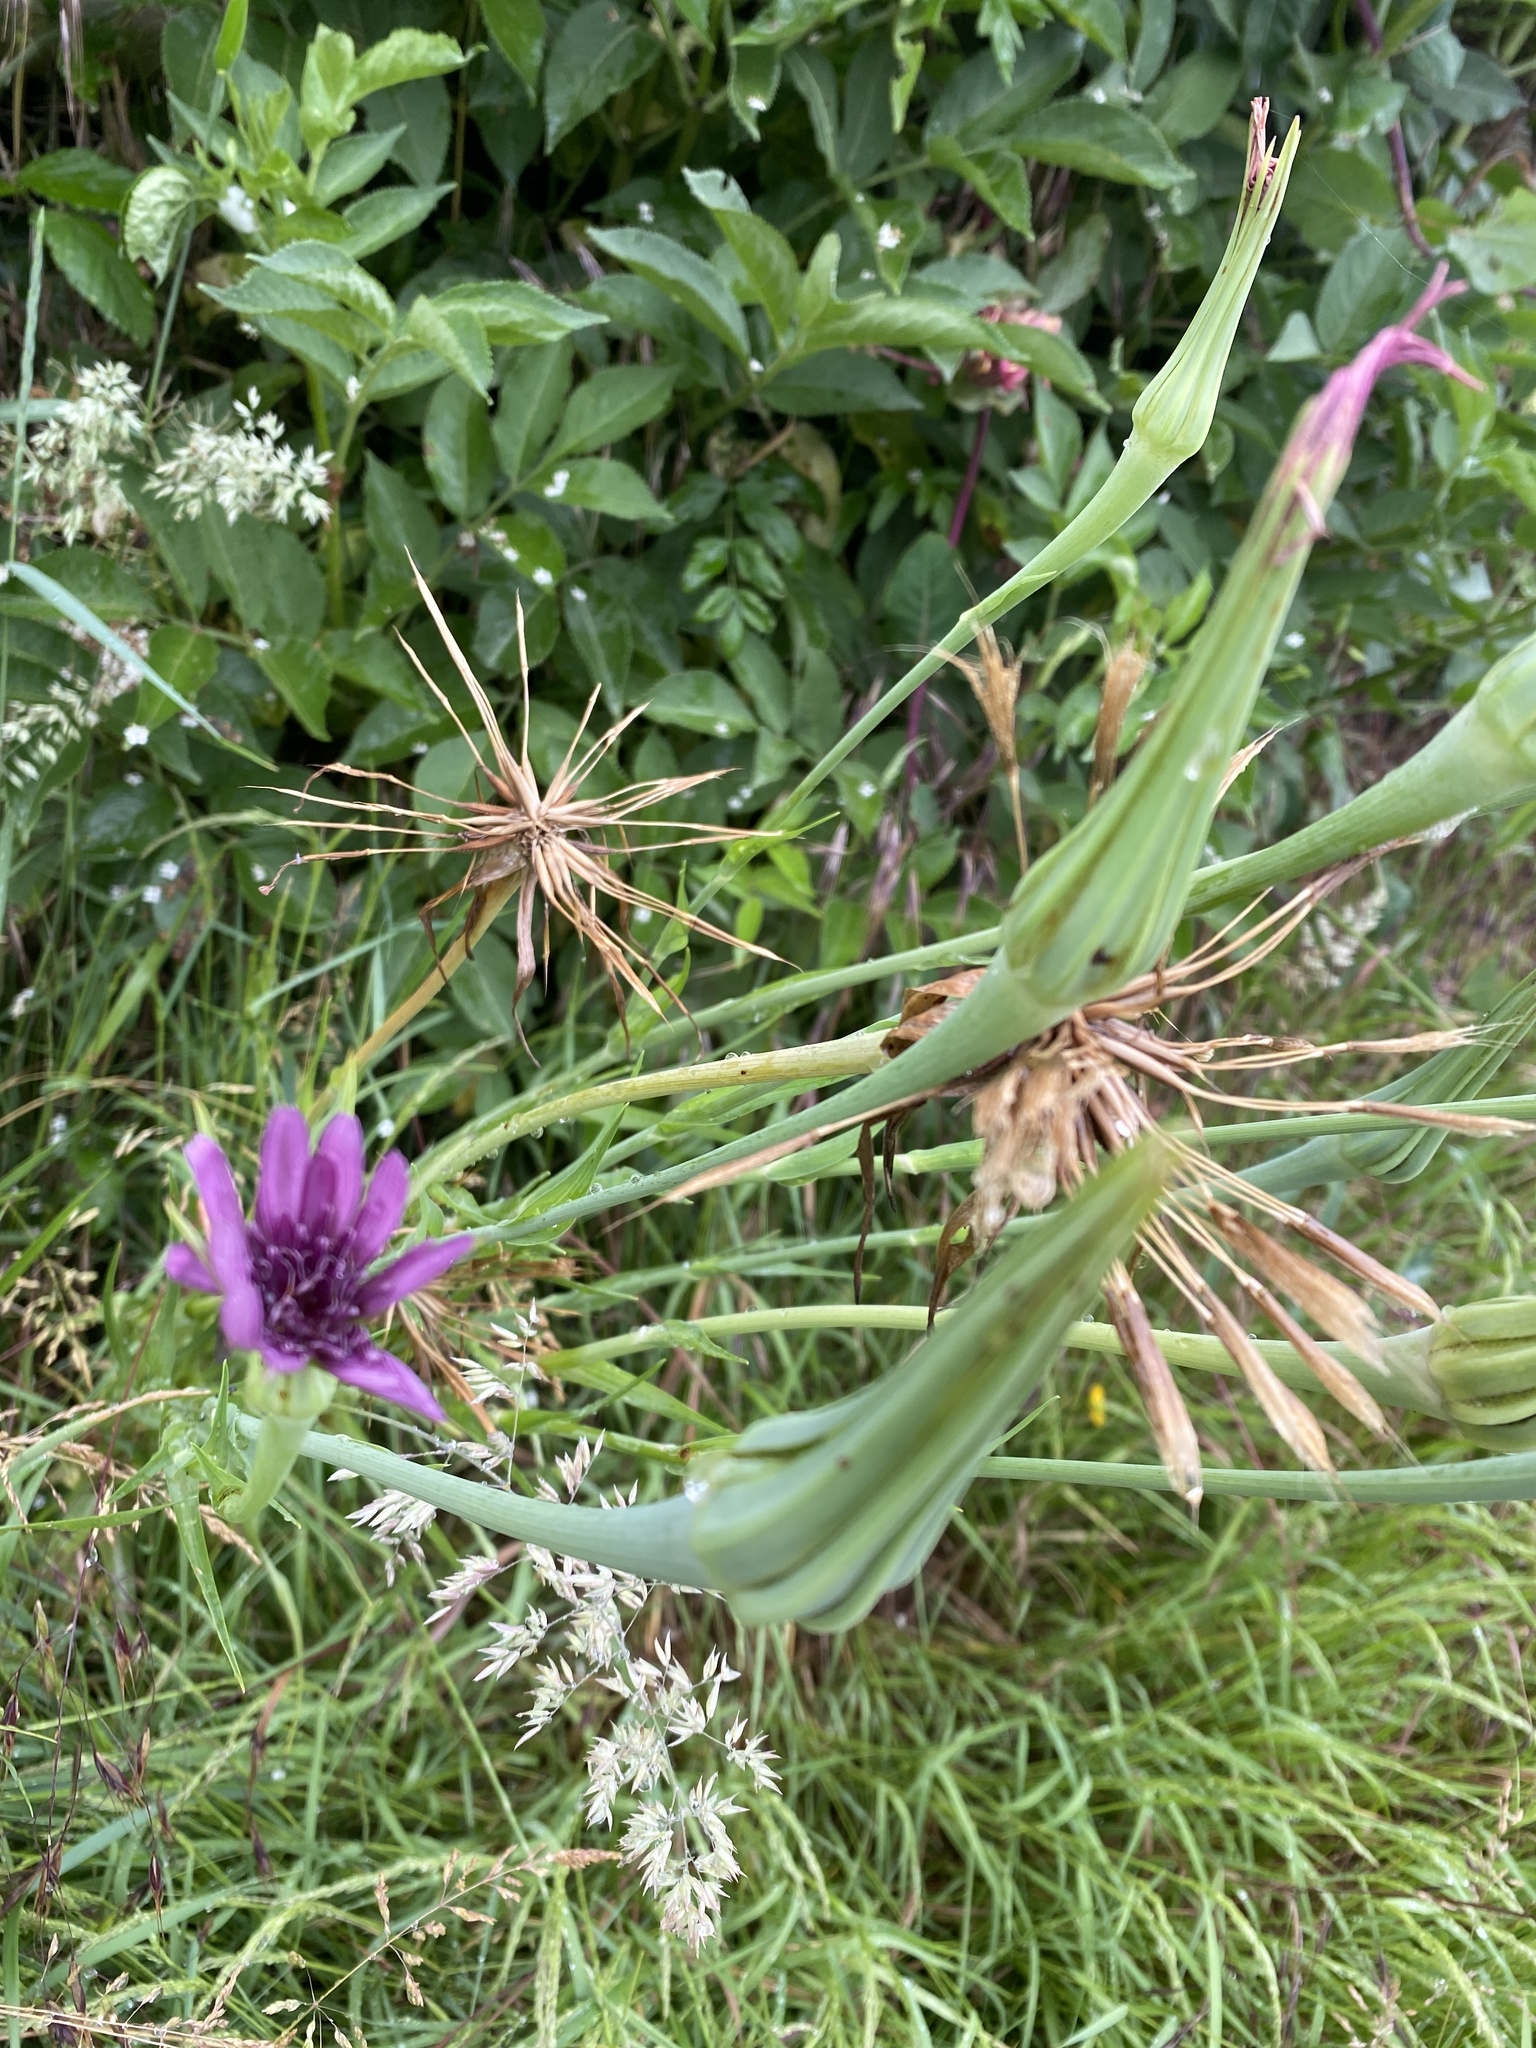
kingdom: Plantae
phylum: Tracheophyta
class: Magnoliopsida
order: Asterales
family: Asteraceae
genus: Tragopogon
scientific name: Tragopogon porrifolius
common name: Salsify
